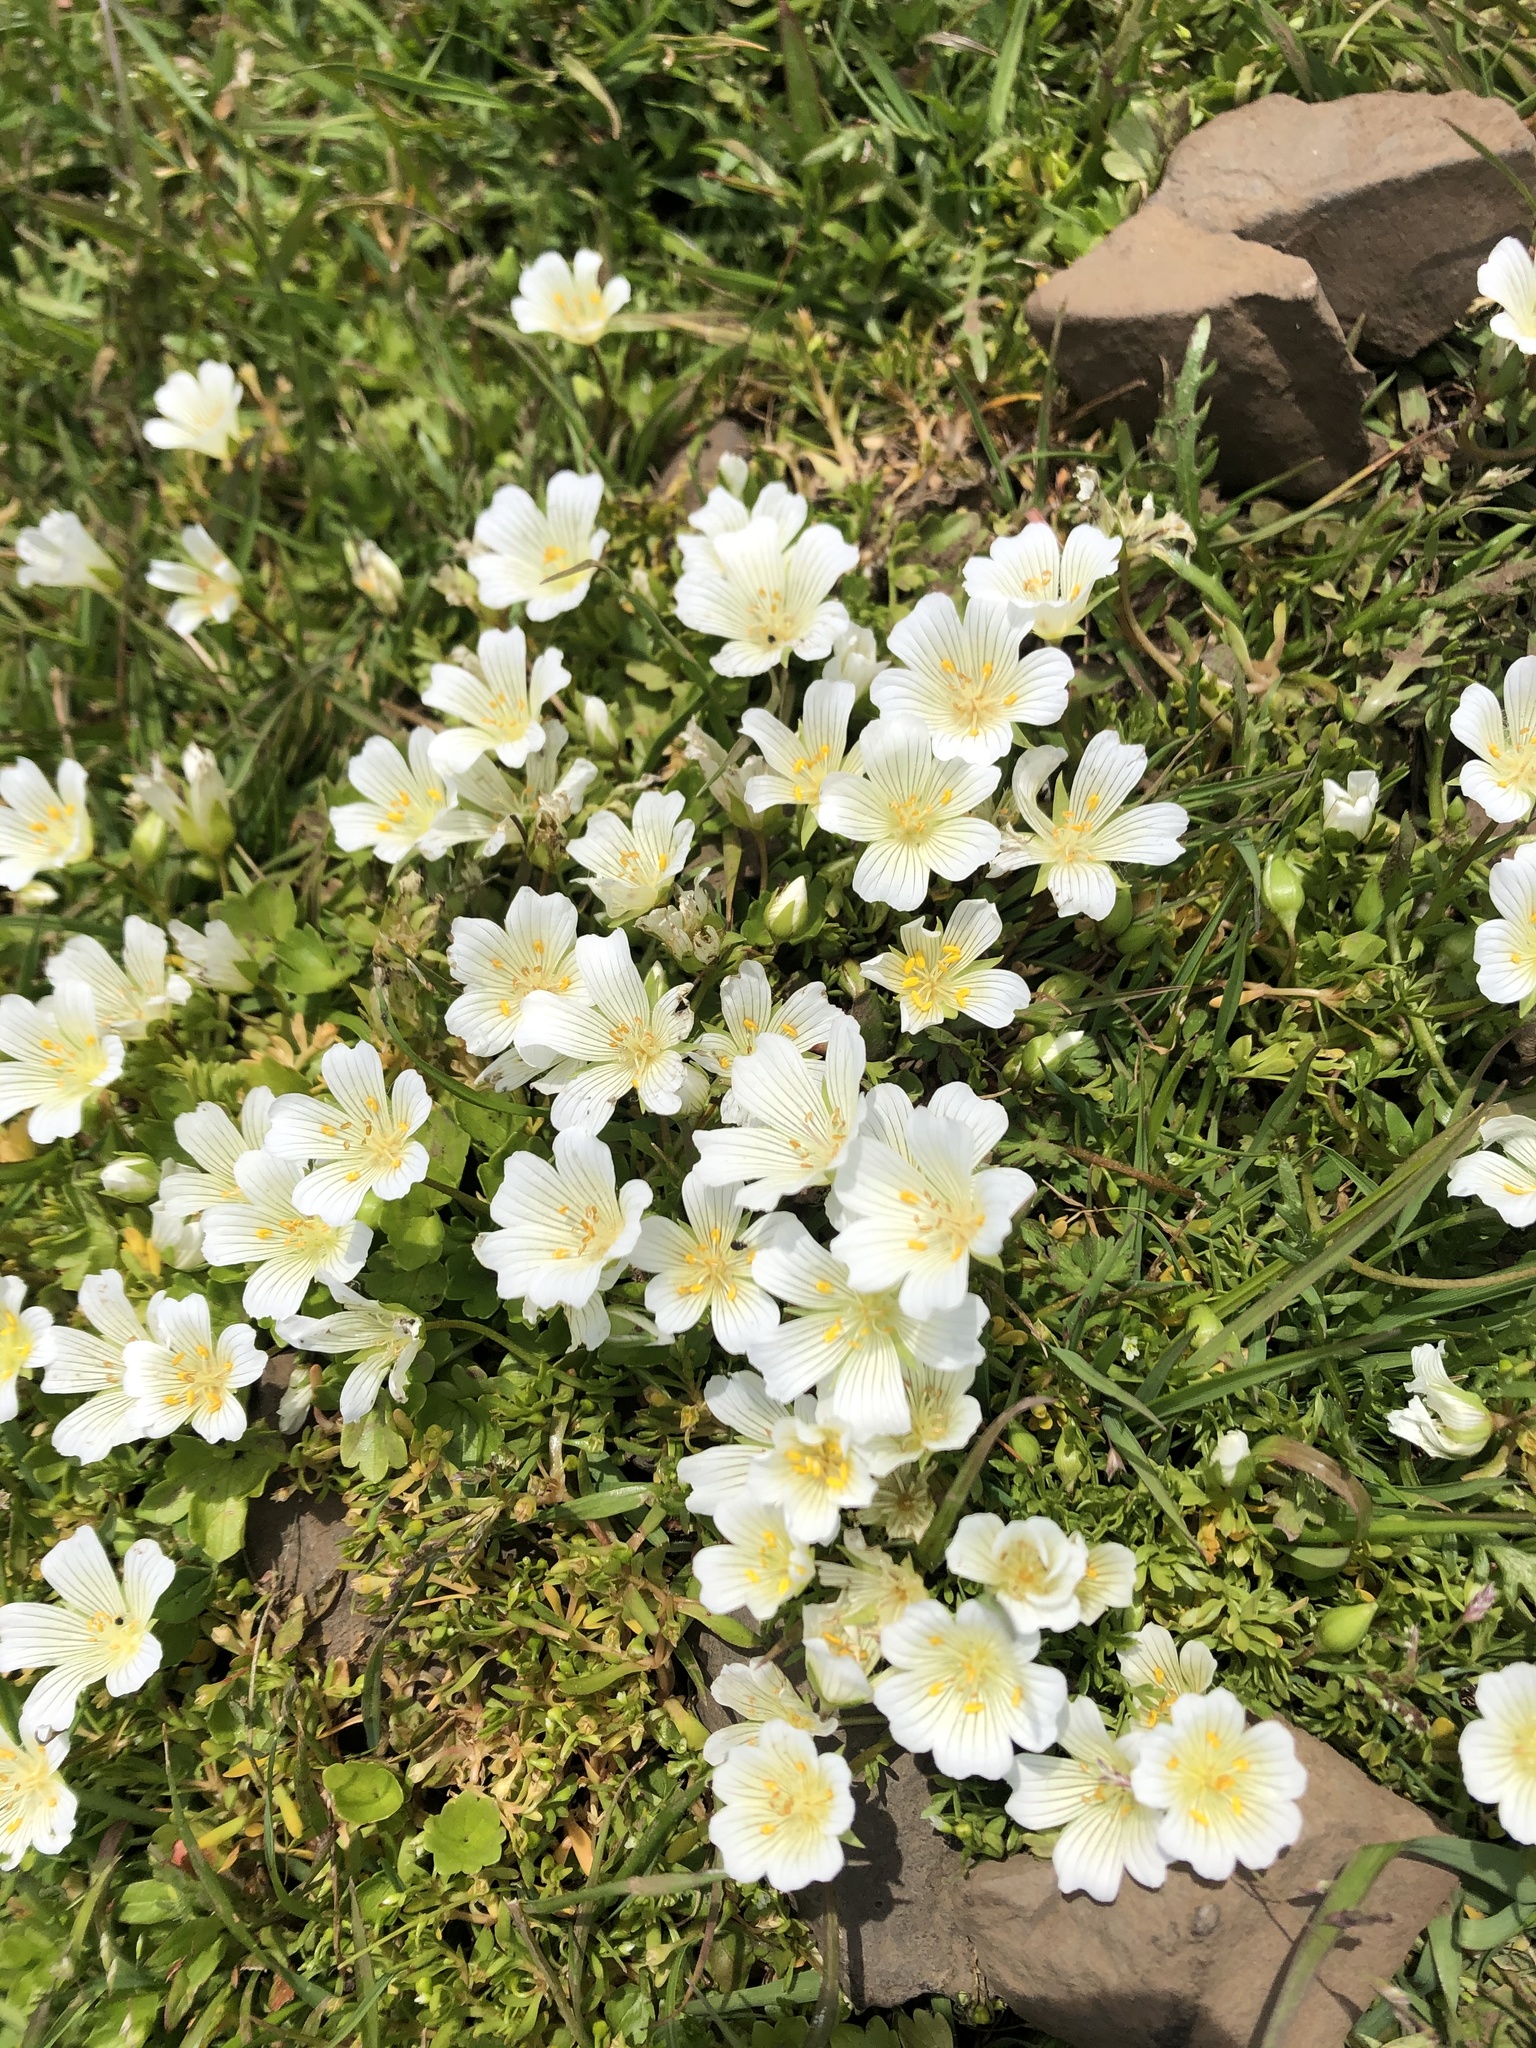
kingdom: Plantae
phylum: Tracheophyta
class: Magnoliopsida
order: Brassicales
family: Limnanthaceae
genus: Limnanthes
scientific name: Limnanthes douglasii
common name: Meadow-foam
